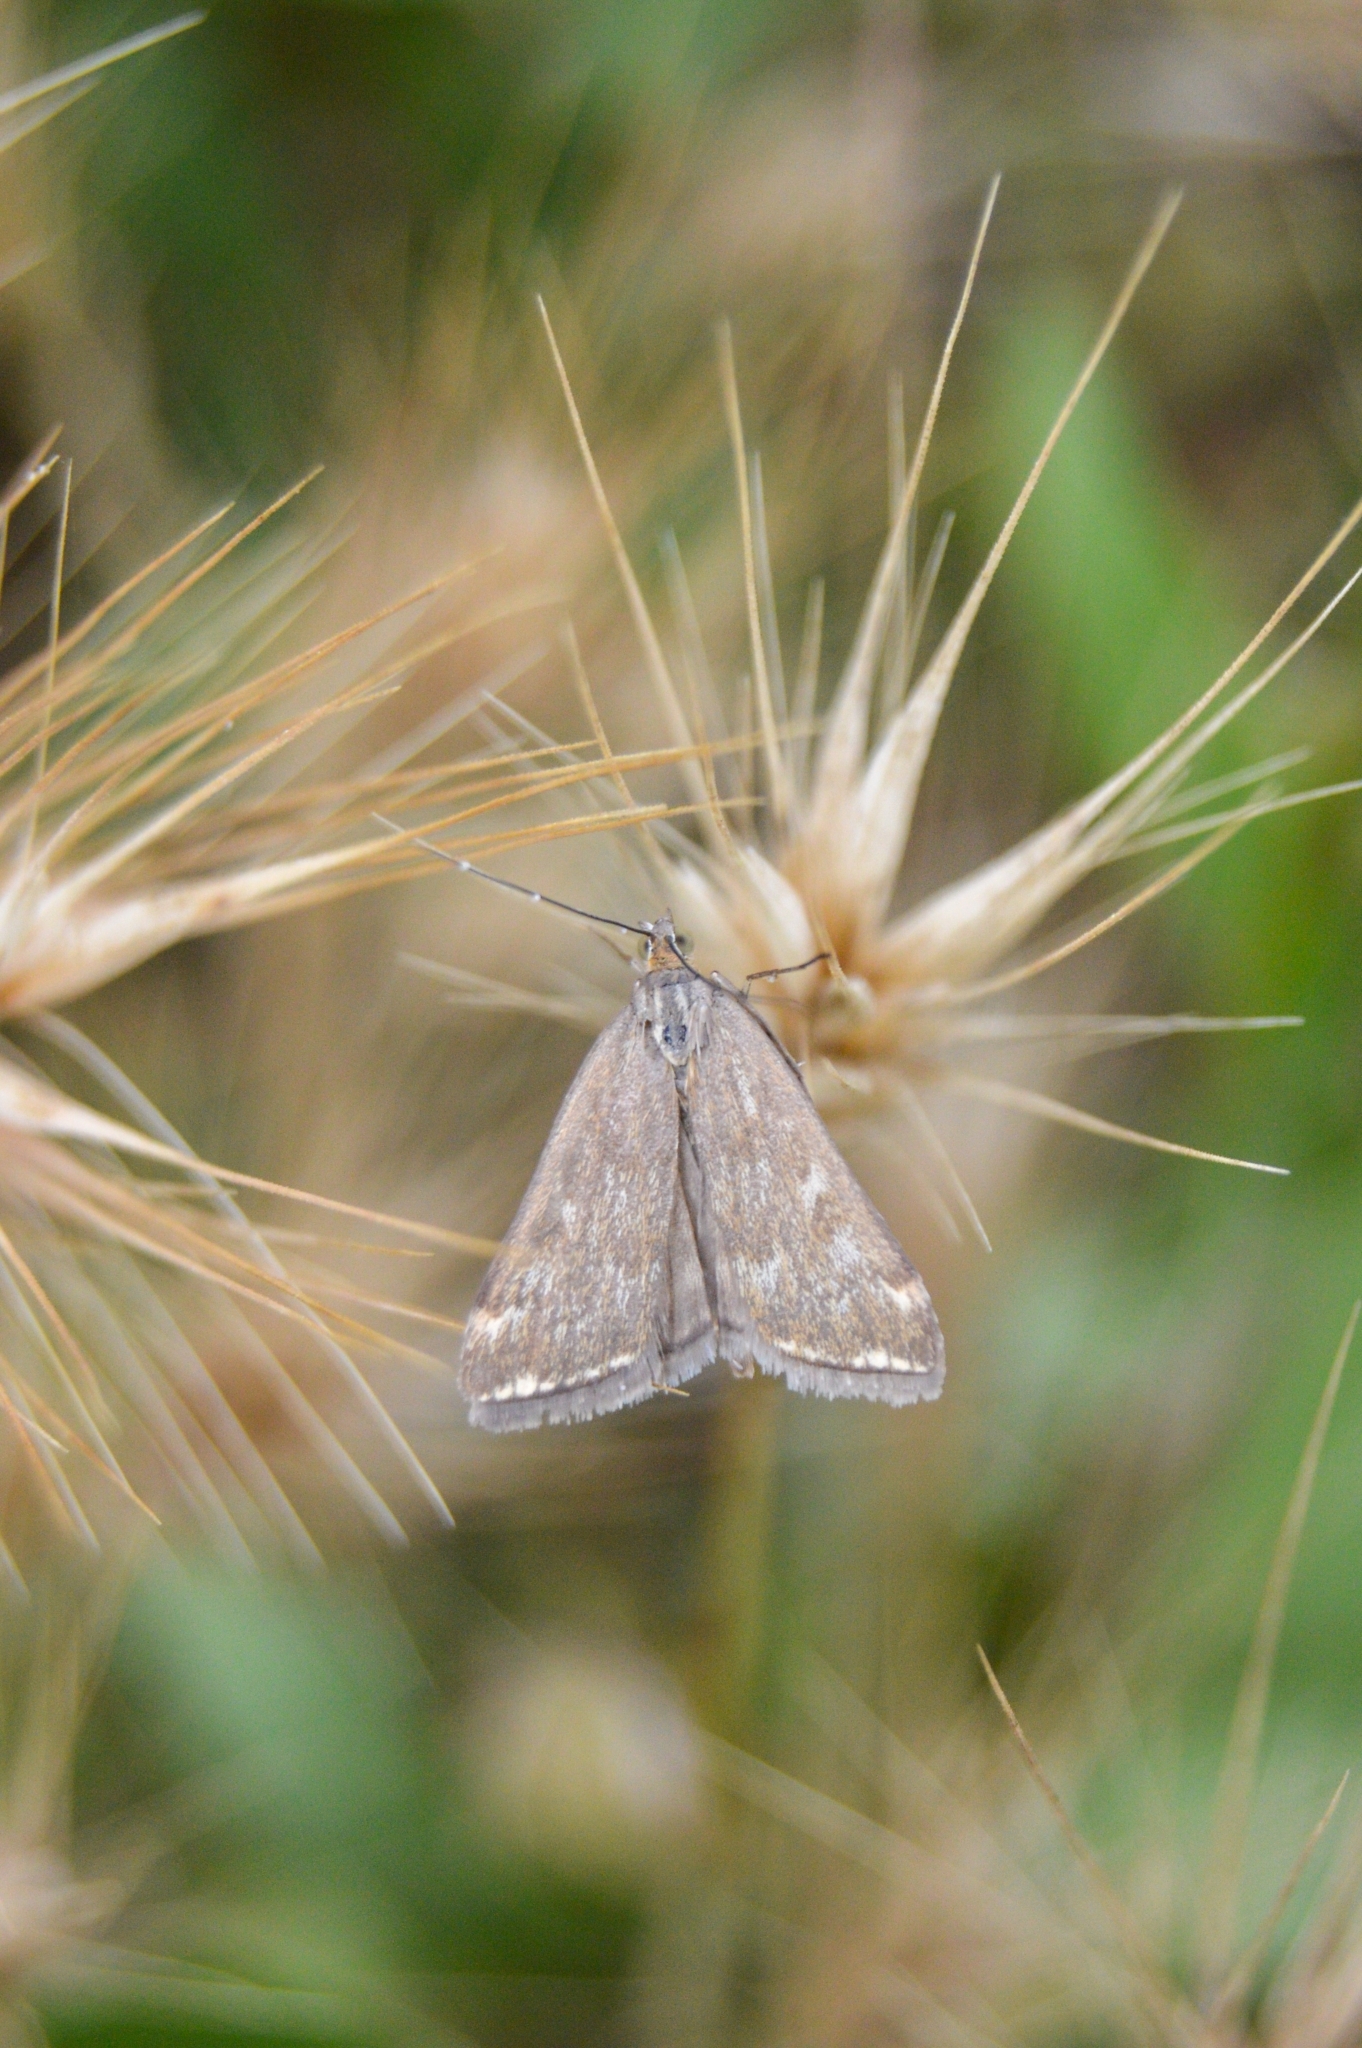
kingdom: Animalia
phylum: Arthropoda
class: Insecta
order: Lepidoptera
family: Crambidae
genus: Loxostege
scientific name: Loxostege sticticalis
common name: Crambid moth
